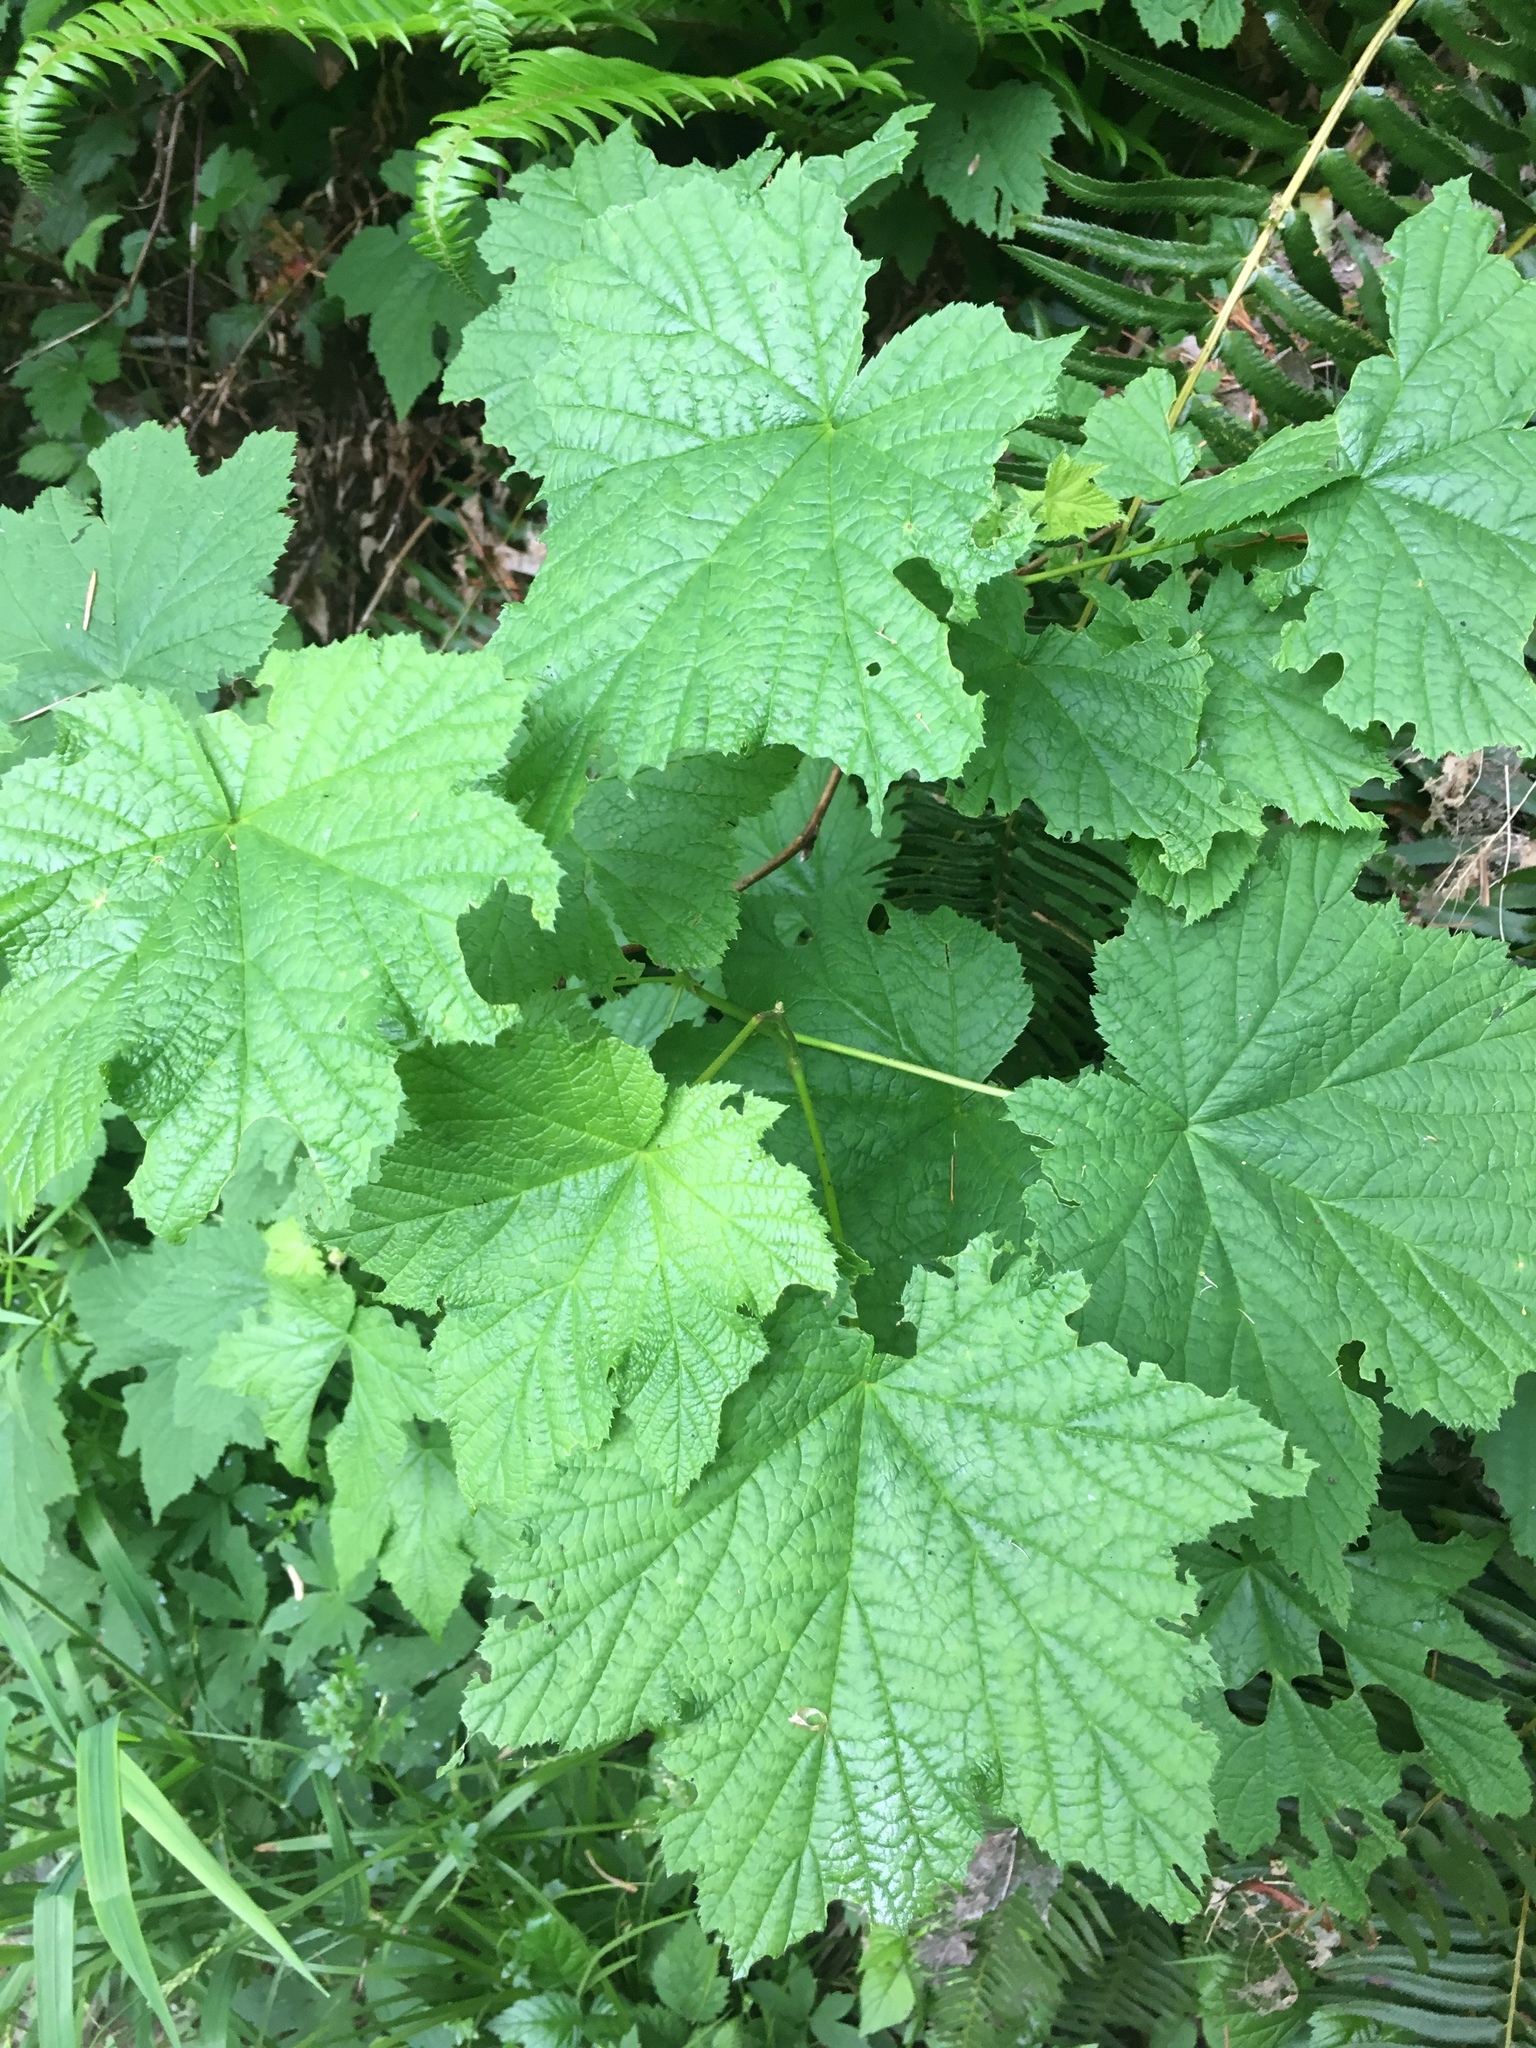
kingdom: Plantae
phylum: Tracheophyta
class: Magnoliopsida
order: Rosales
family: Rosaceae
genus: Rubus
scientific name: Rubus parviflorus
